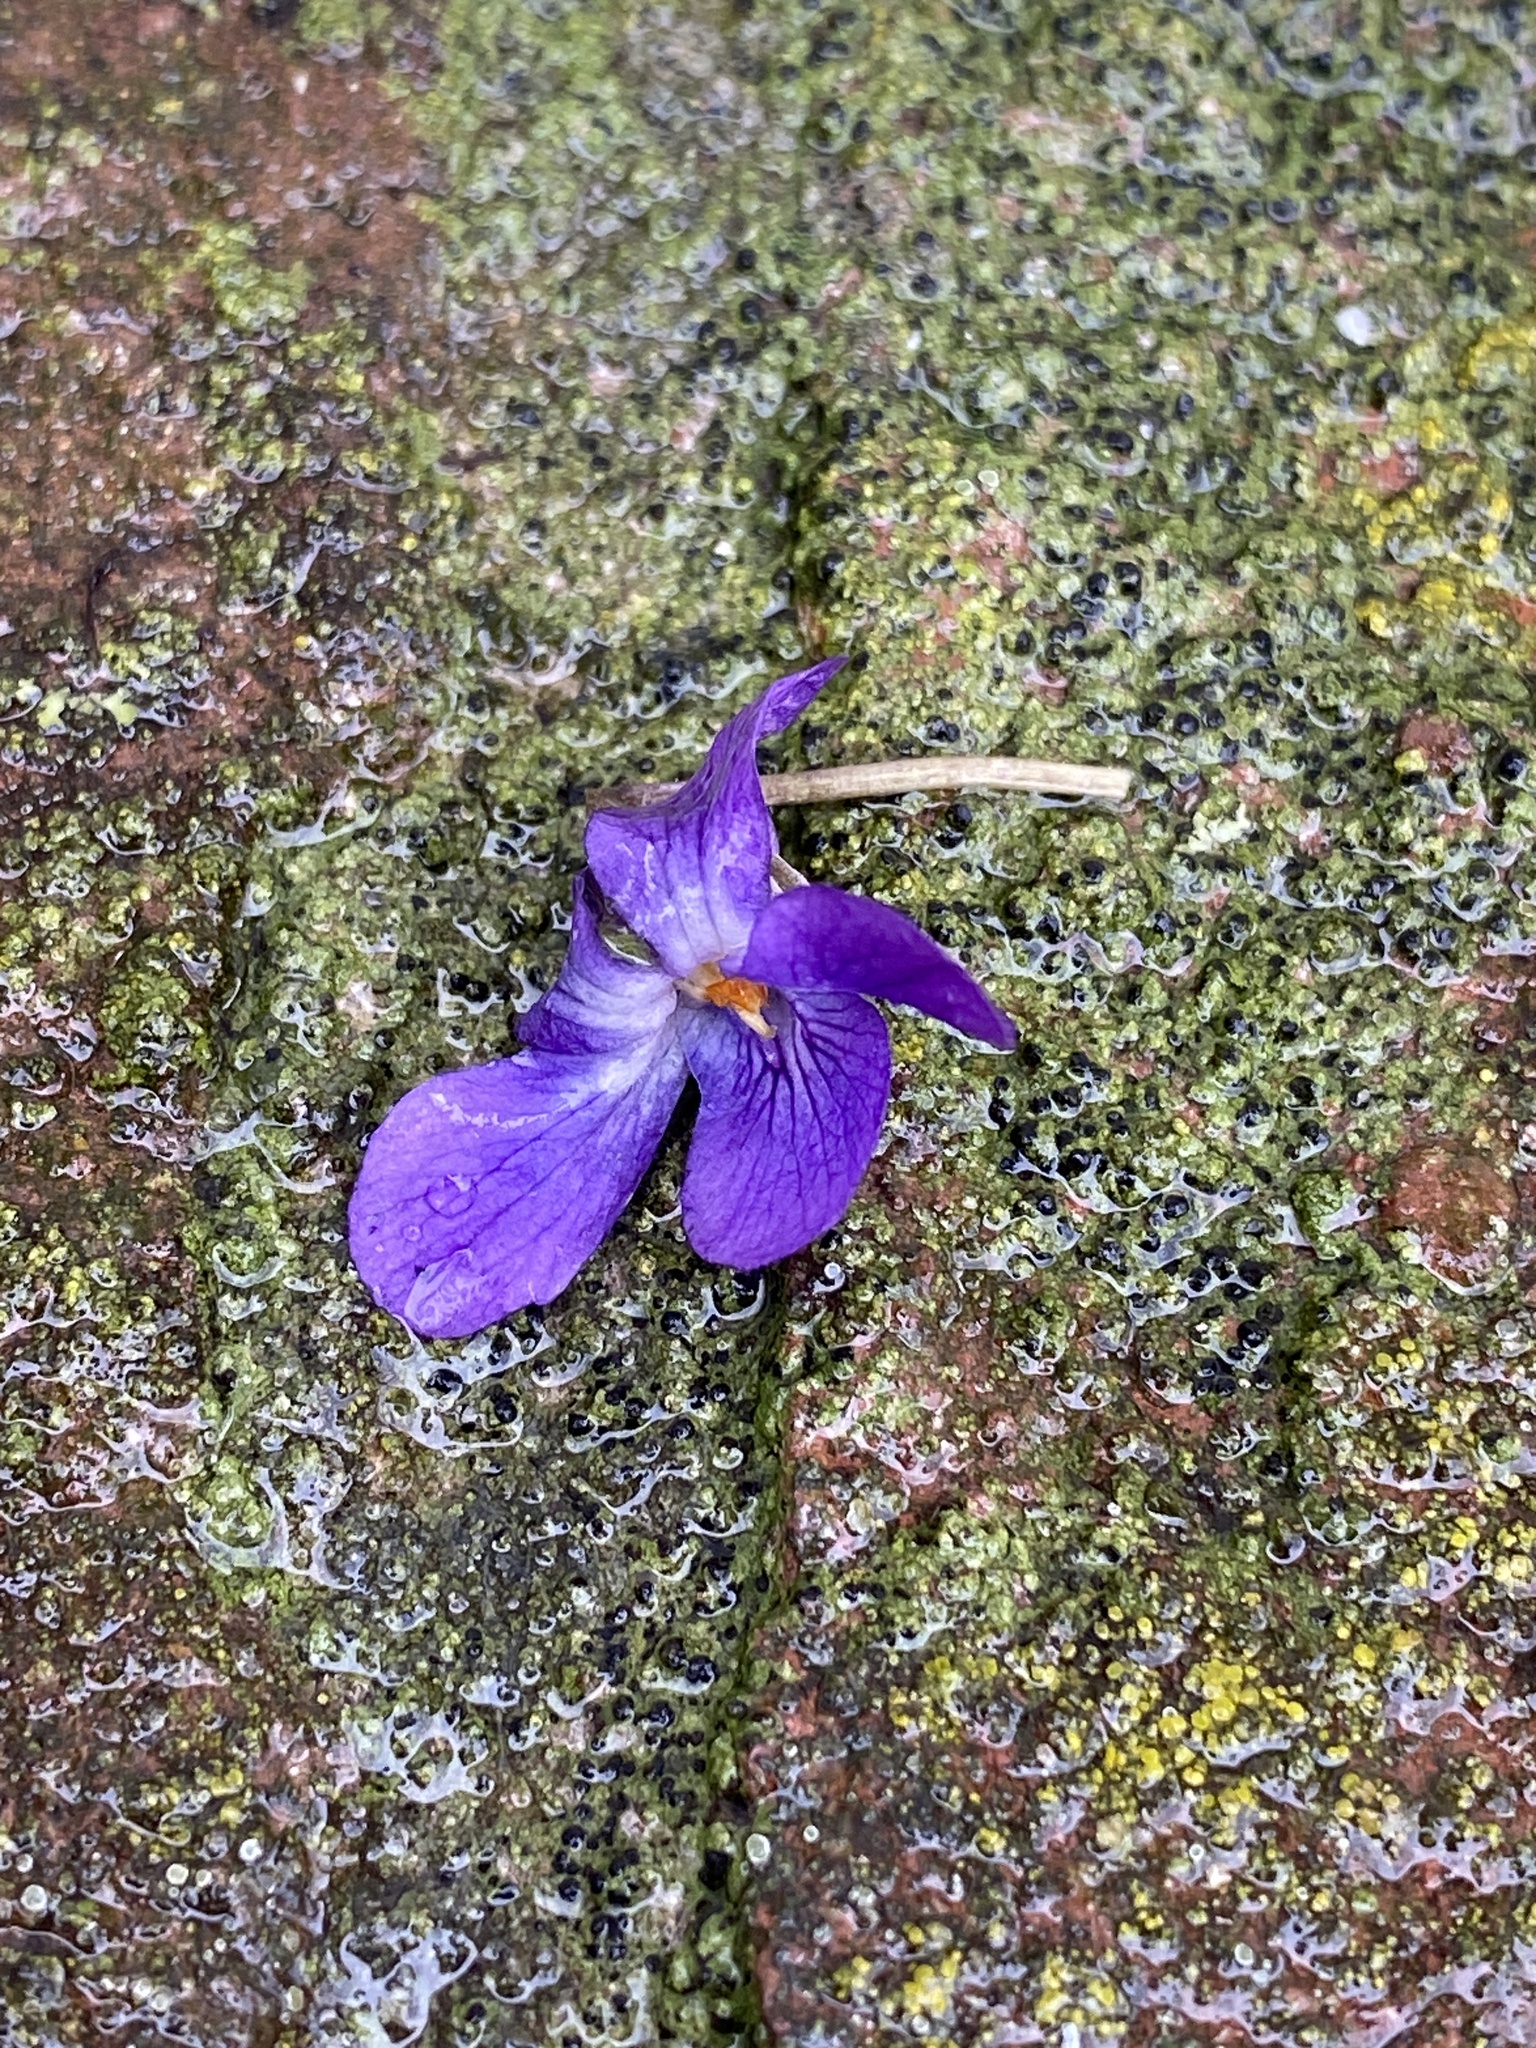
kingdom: Plantae
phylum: Tracheophyta
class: Magnoliopsida
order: Malpighiales
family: Violaceae
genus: Viola
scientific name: Viola odorata
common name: Sweet violet
